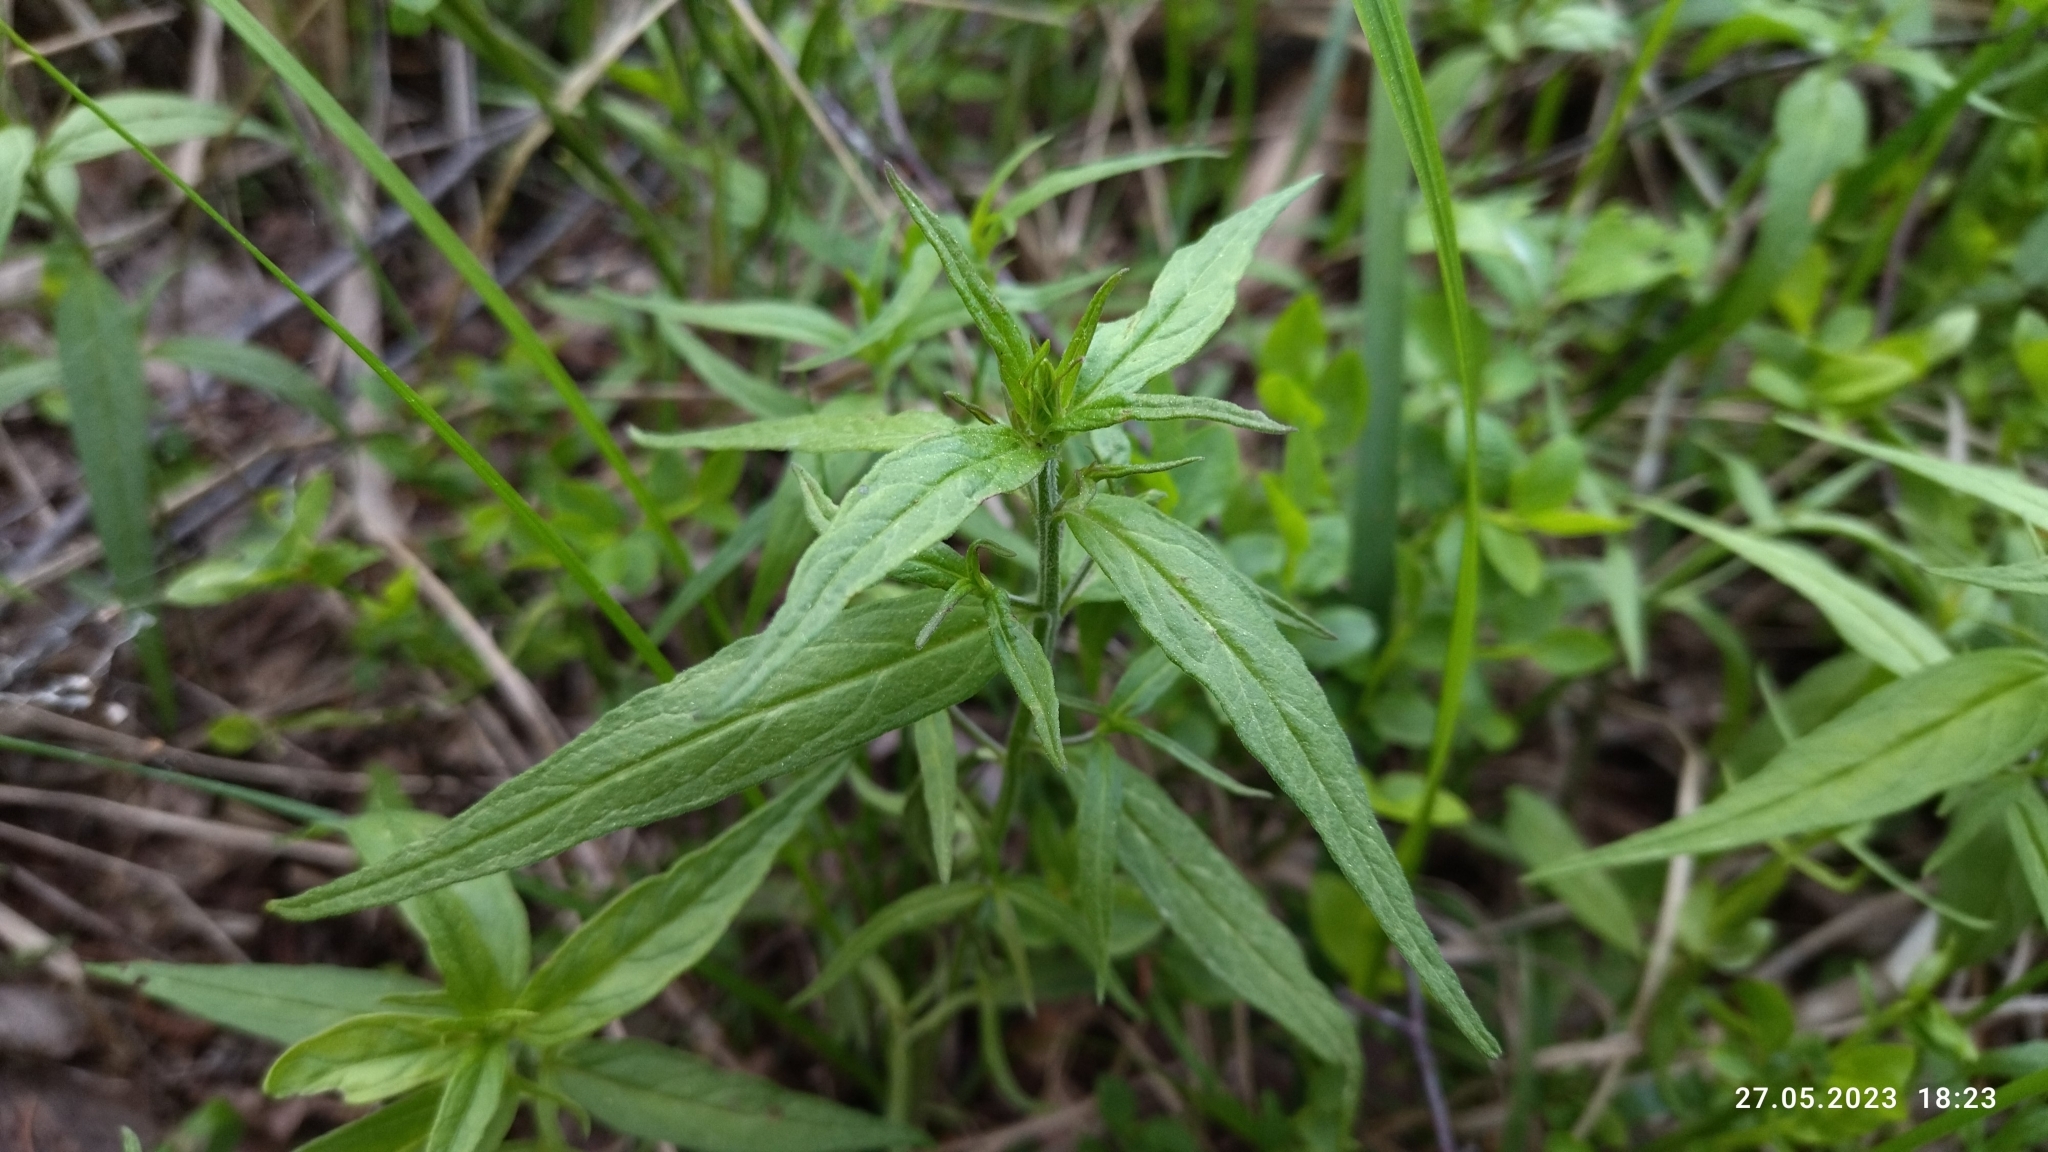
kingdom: Plantae
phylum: Tracheophyta
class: Magnoliopsida
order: Lamiales
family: Orobanchaceae
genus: Melampyrum
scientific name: Melampyrum nemorosum
